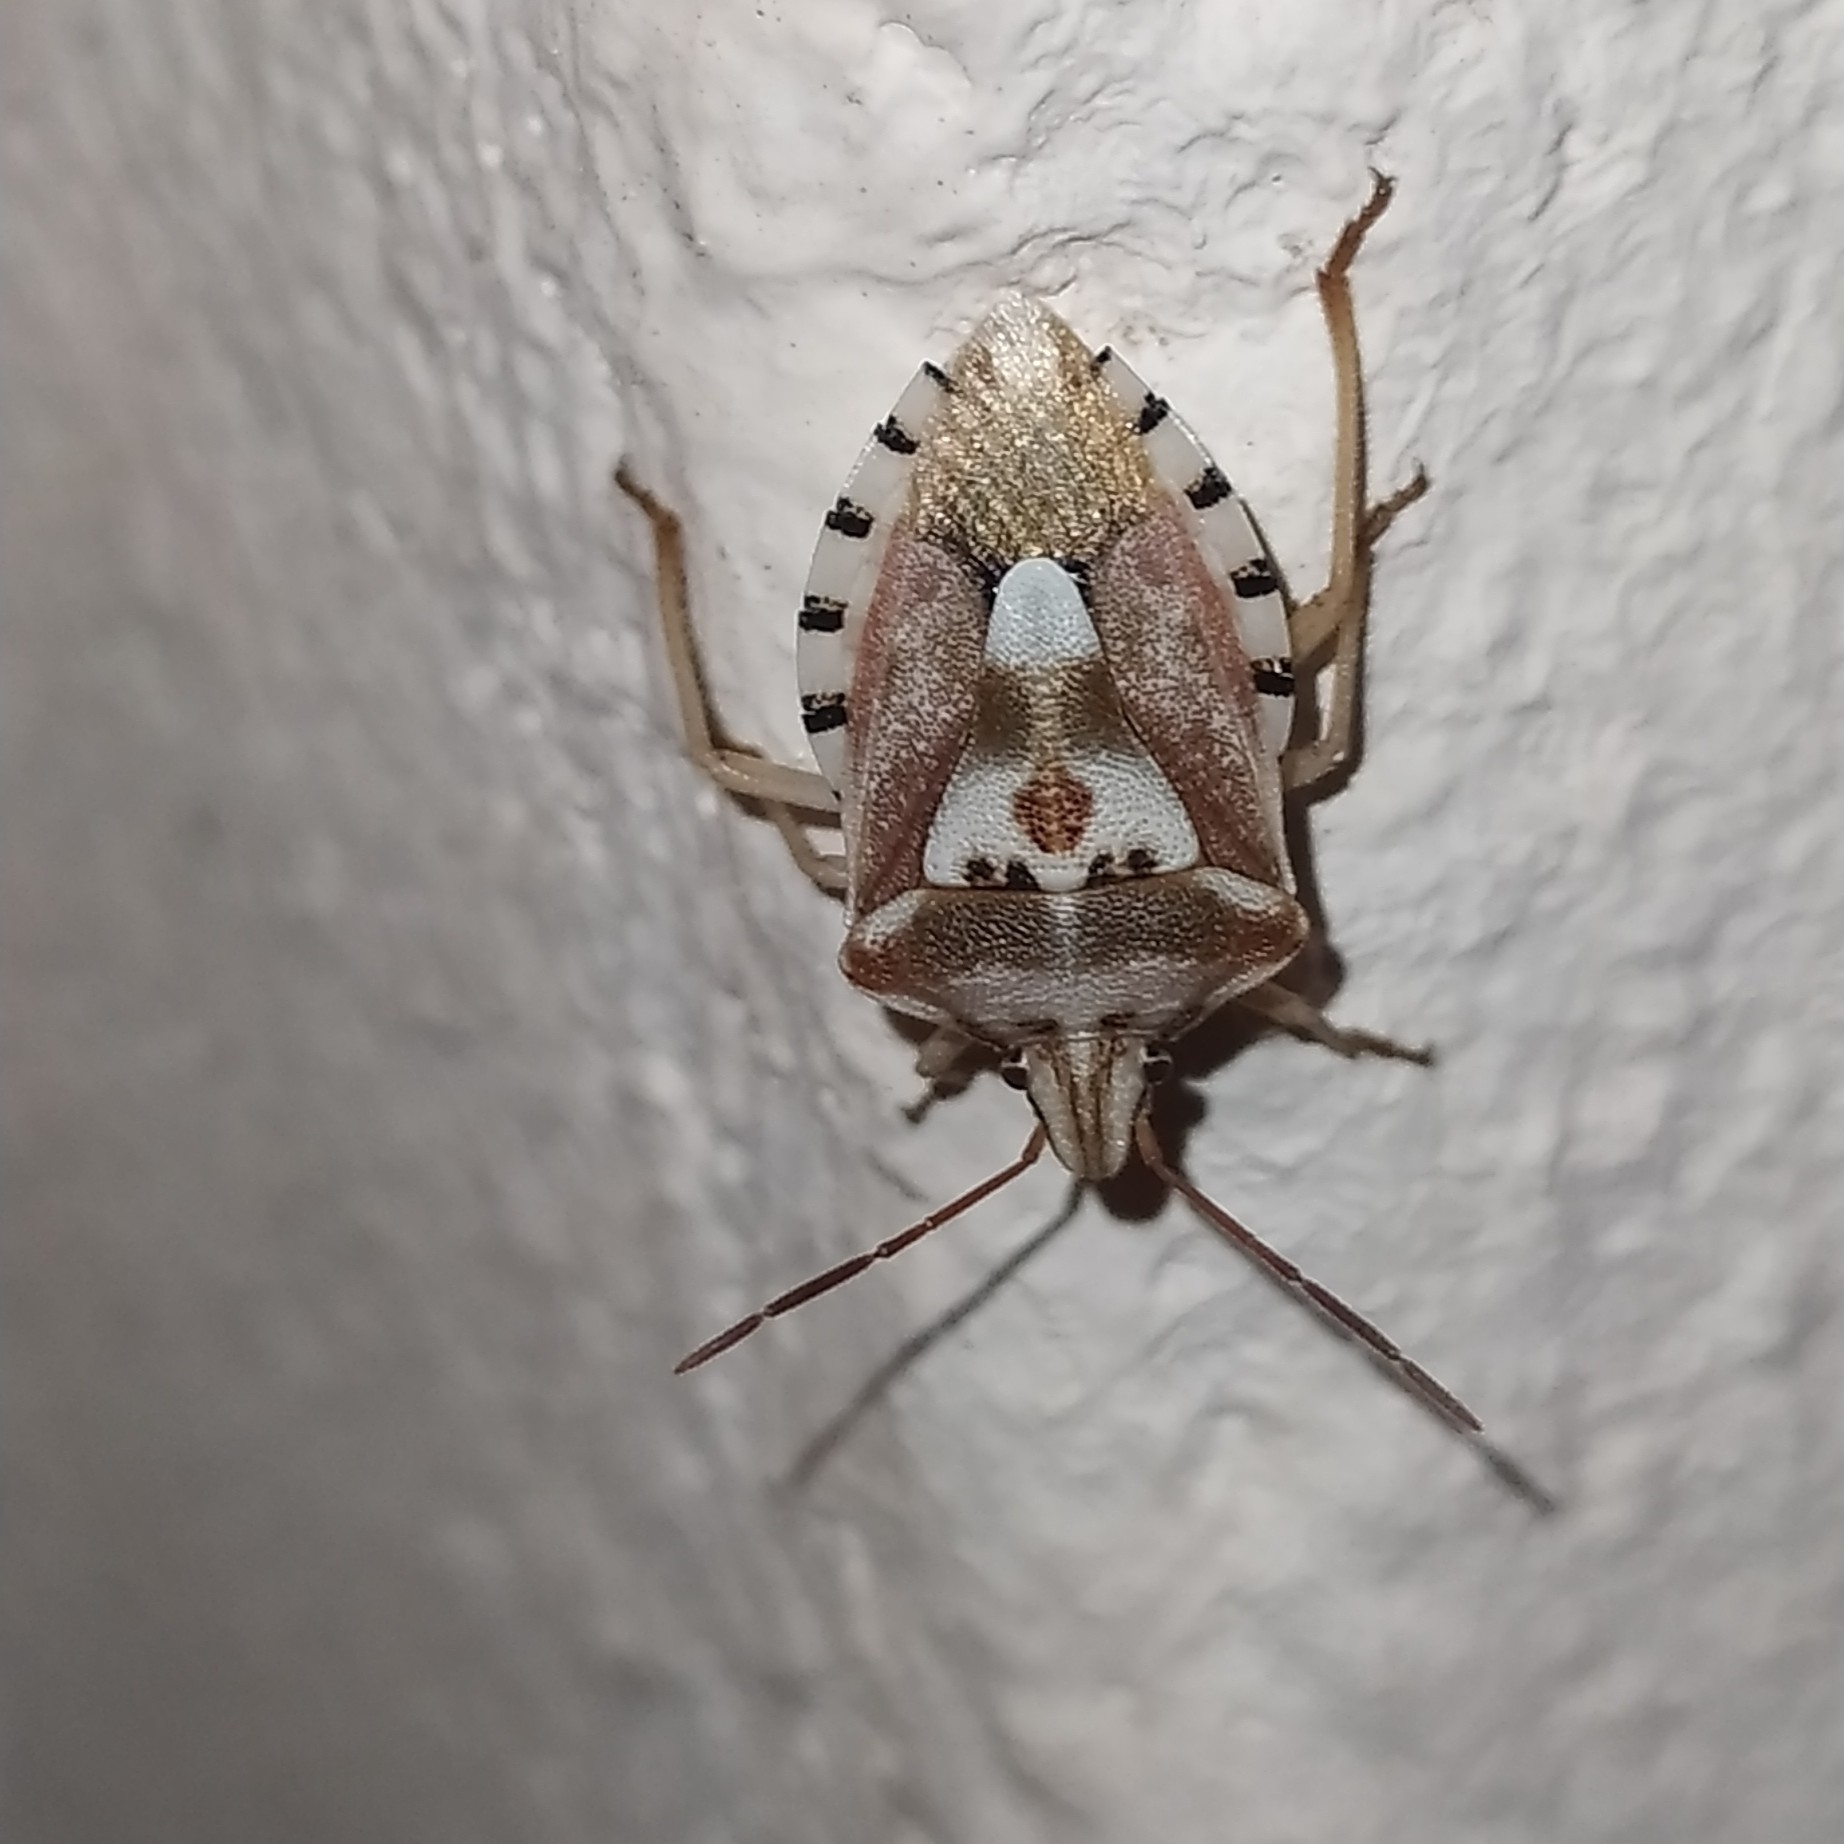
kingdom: Animalia
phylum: Arthropoda
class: Insecta
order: Hemiptera
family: Miridae
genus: Orthops
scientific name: Orthops kalmii
